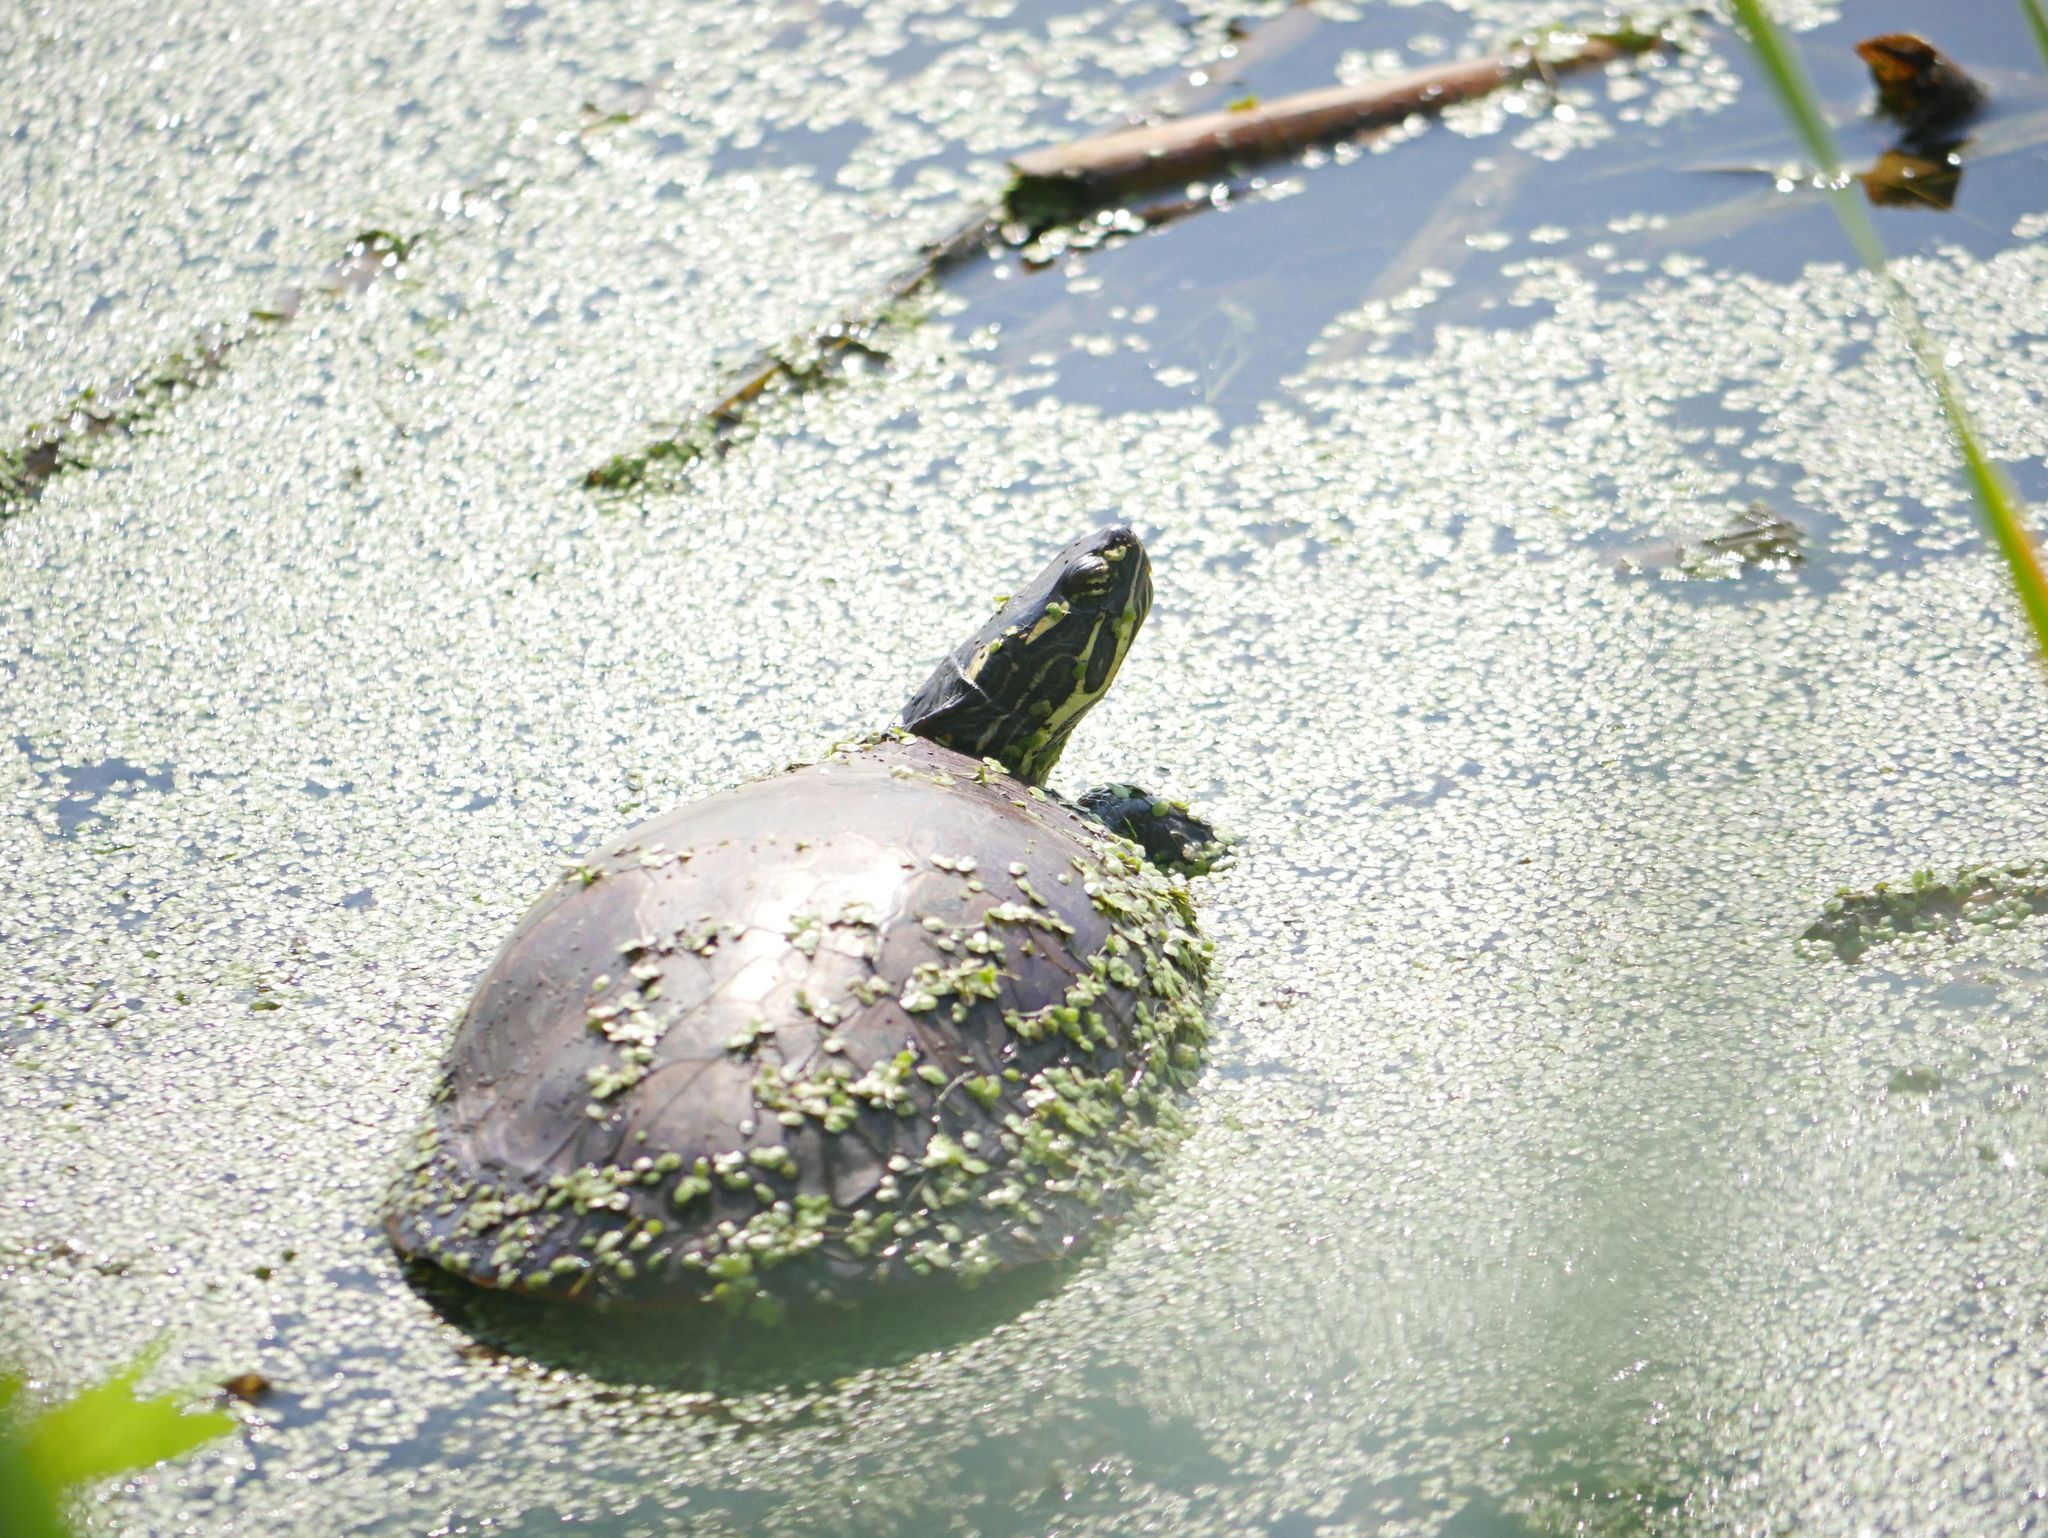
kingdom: Animalia
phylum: Chordata
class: Testudines
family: Emydidae
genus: Chrysemys
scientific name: Chrysemys picta
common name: Painted turtle
